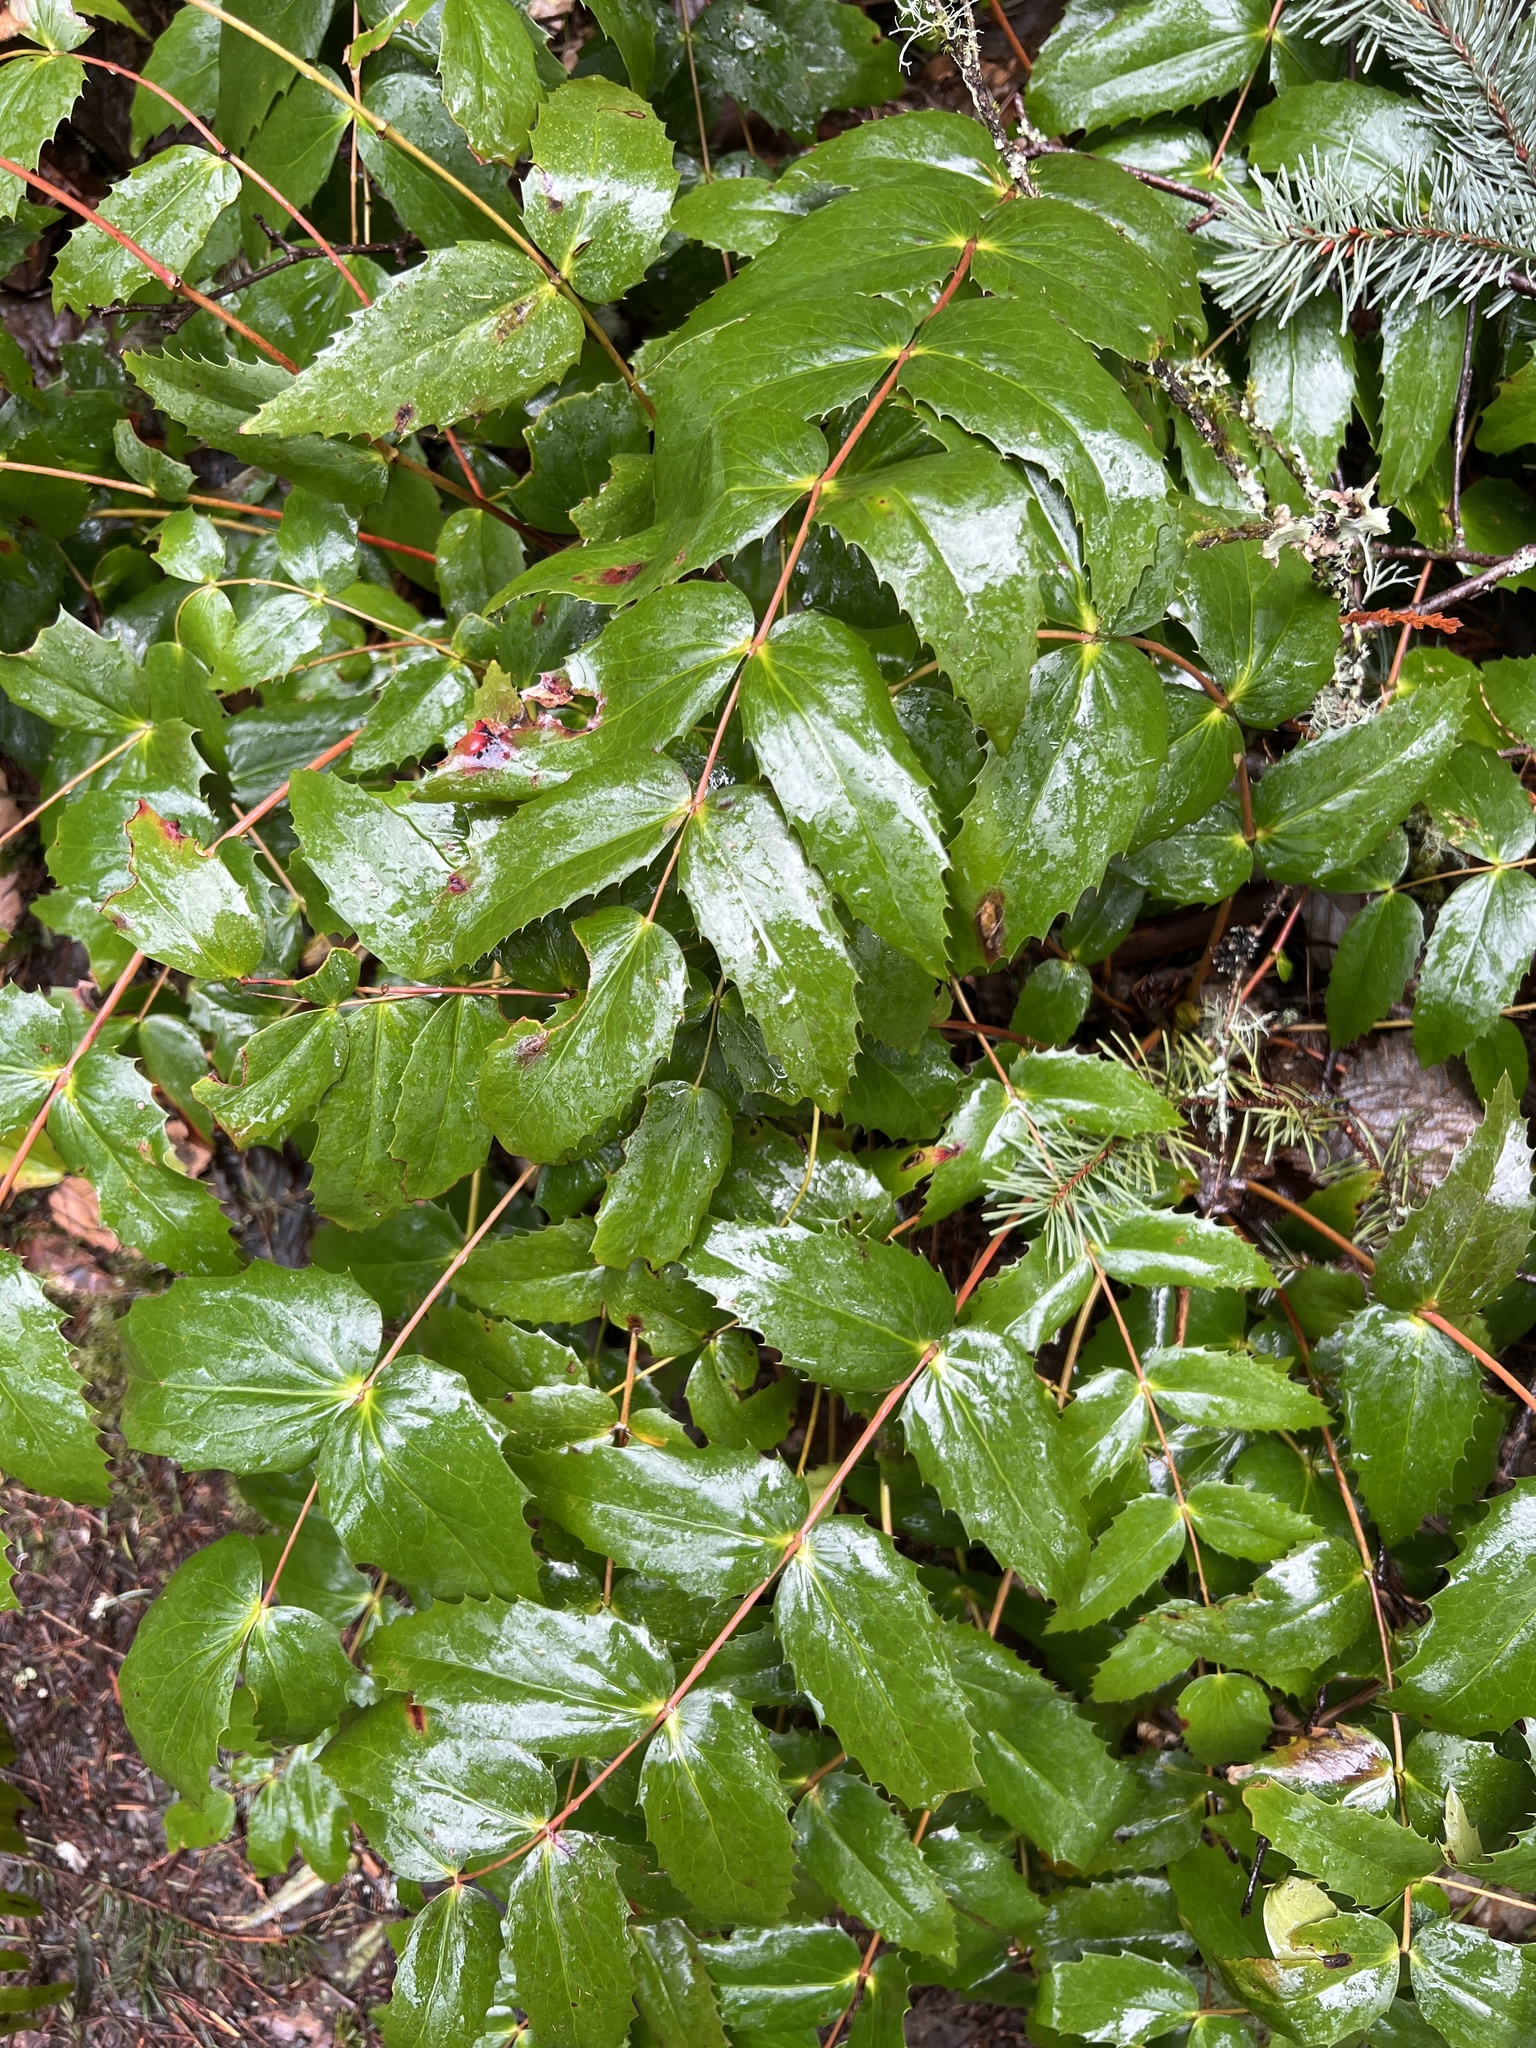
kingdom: Plantae
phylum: Tracheophyta
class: Magnoliopsida
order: Ranunculales
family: Berberidaceae
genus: Mahonia
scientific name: Mahonia nervosa
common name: Cascade oregon-grape
